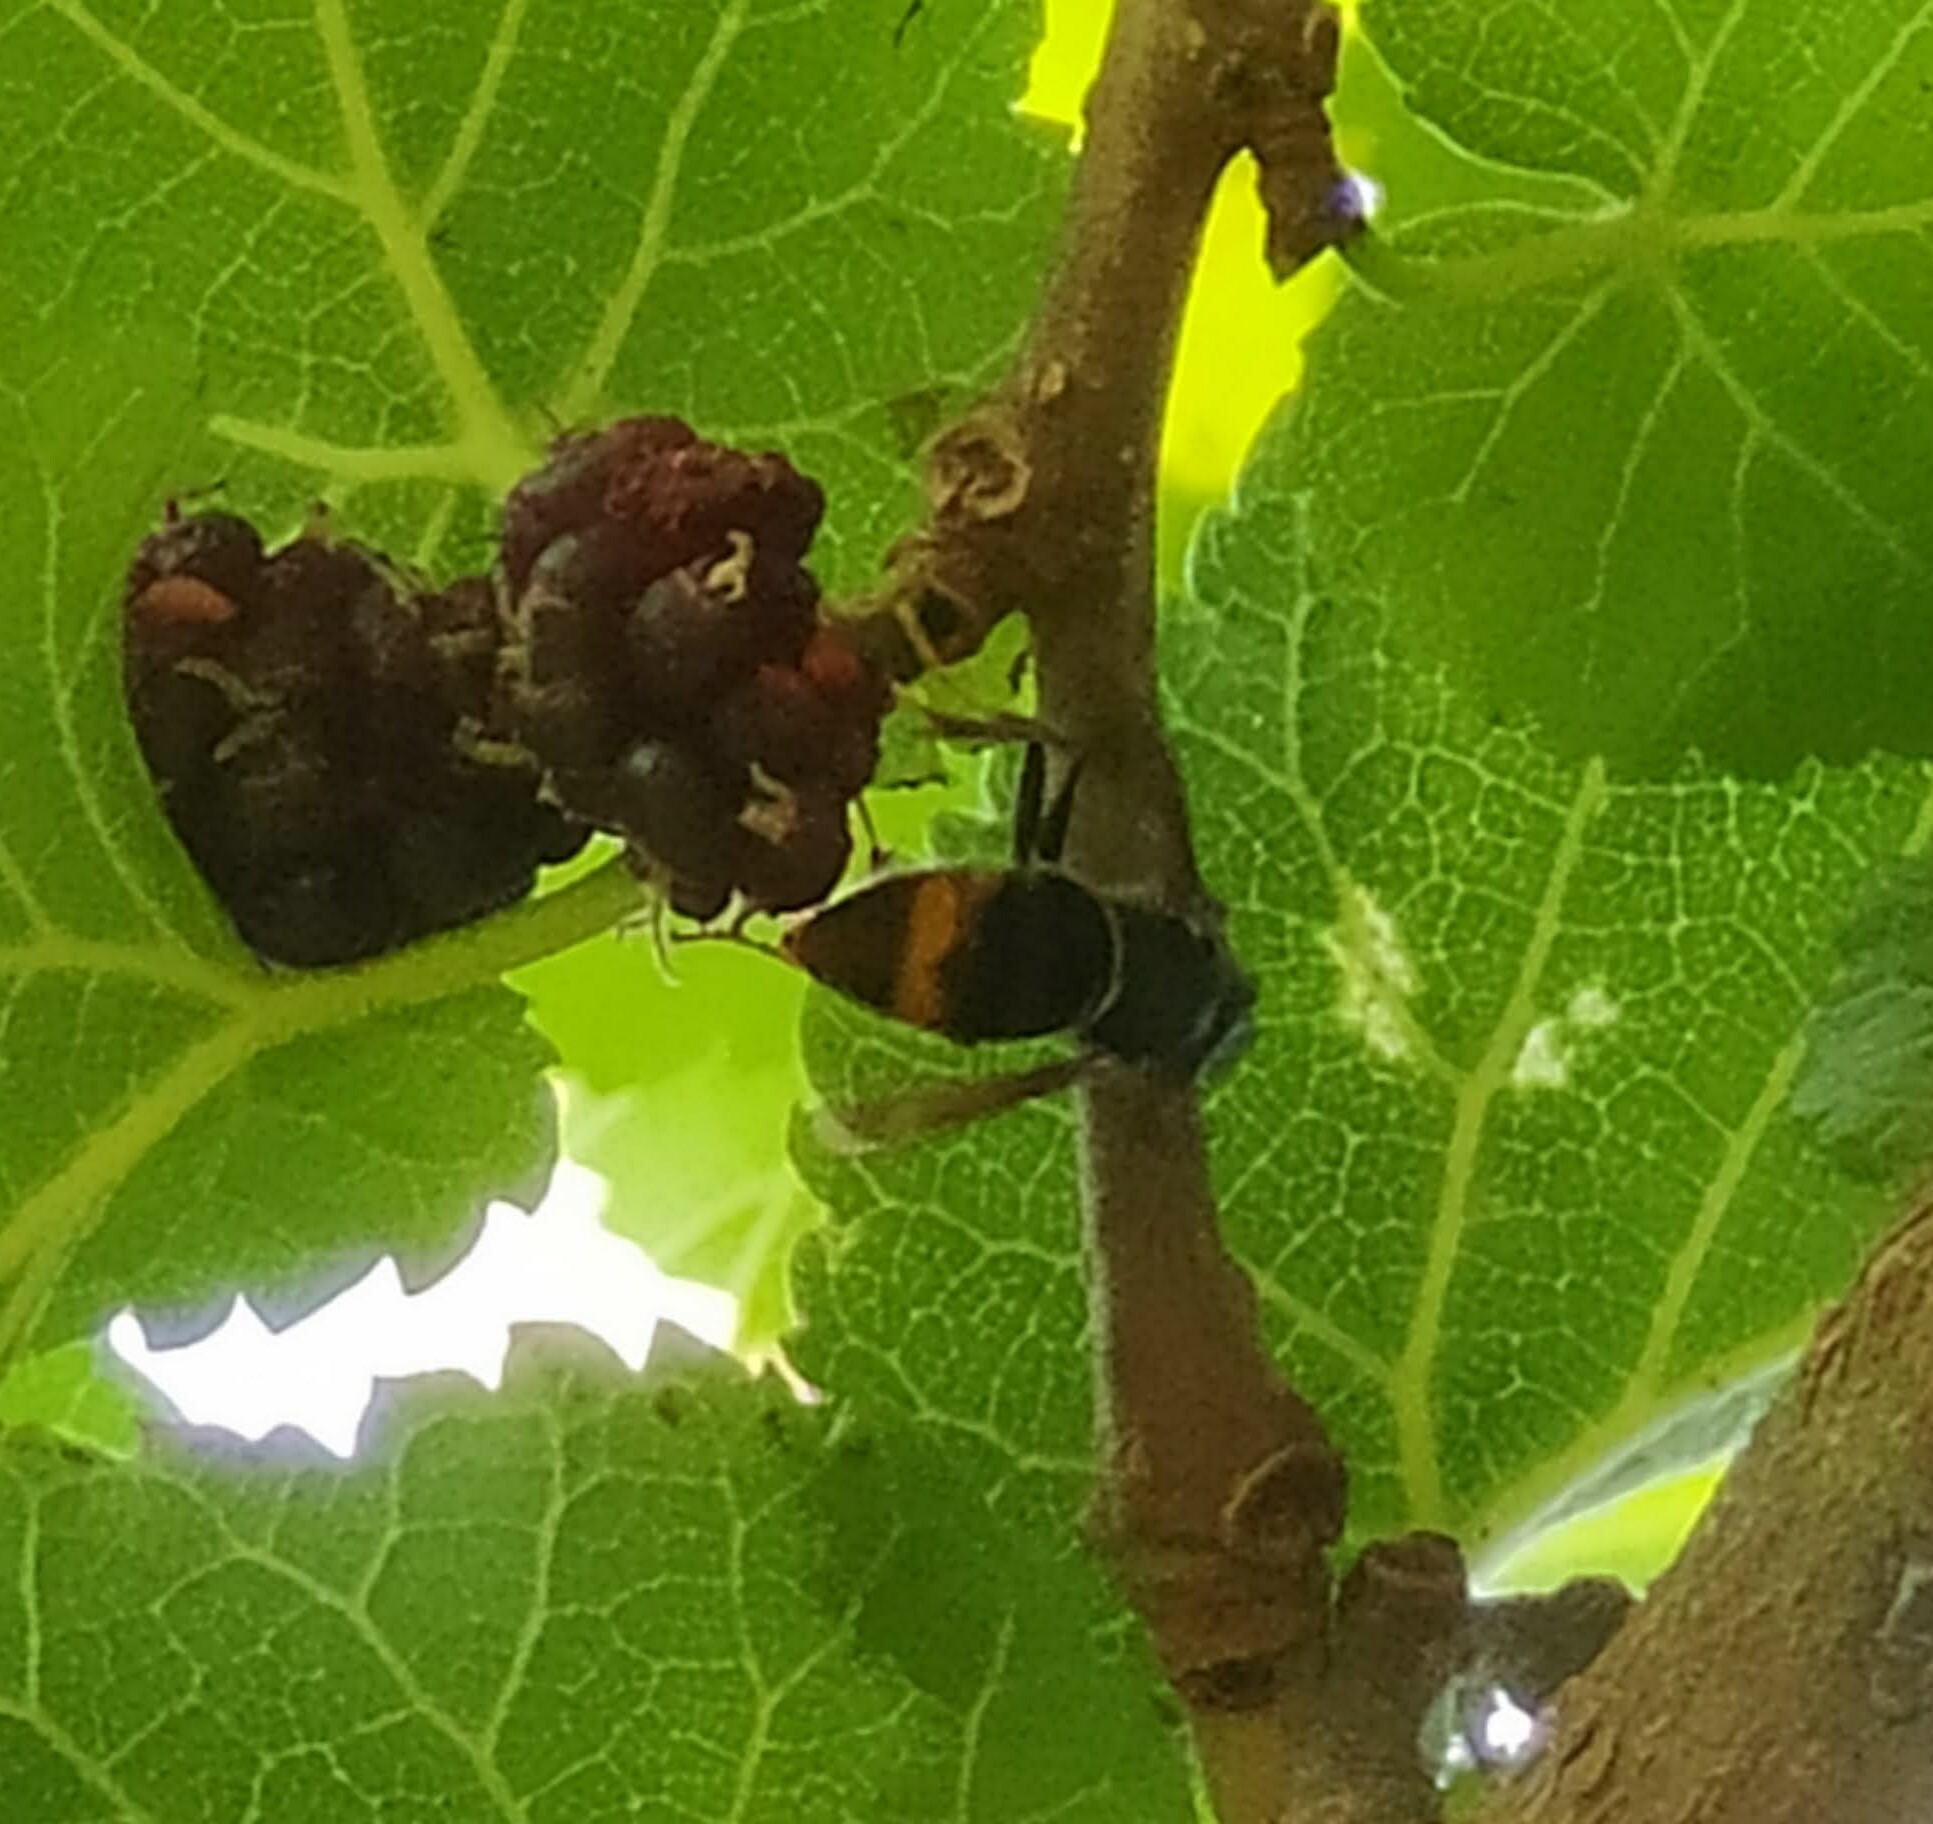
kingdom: Animalia
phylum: Arthropoda
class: Insecta
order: Hymenoptera
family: Vespidae
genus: Vespa
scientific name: Vespa velutina
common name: Asian hornet
